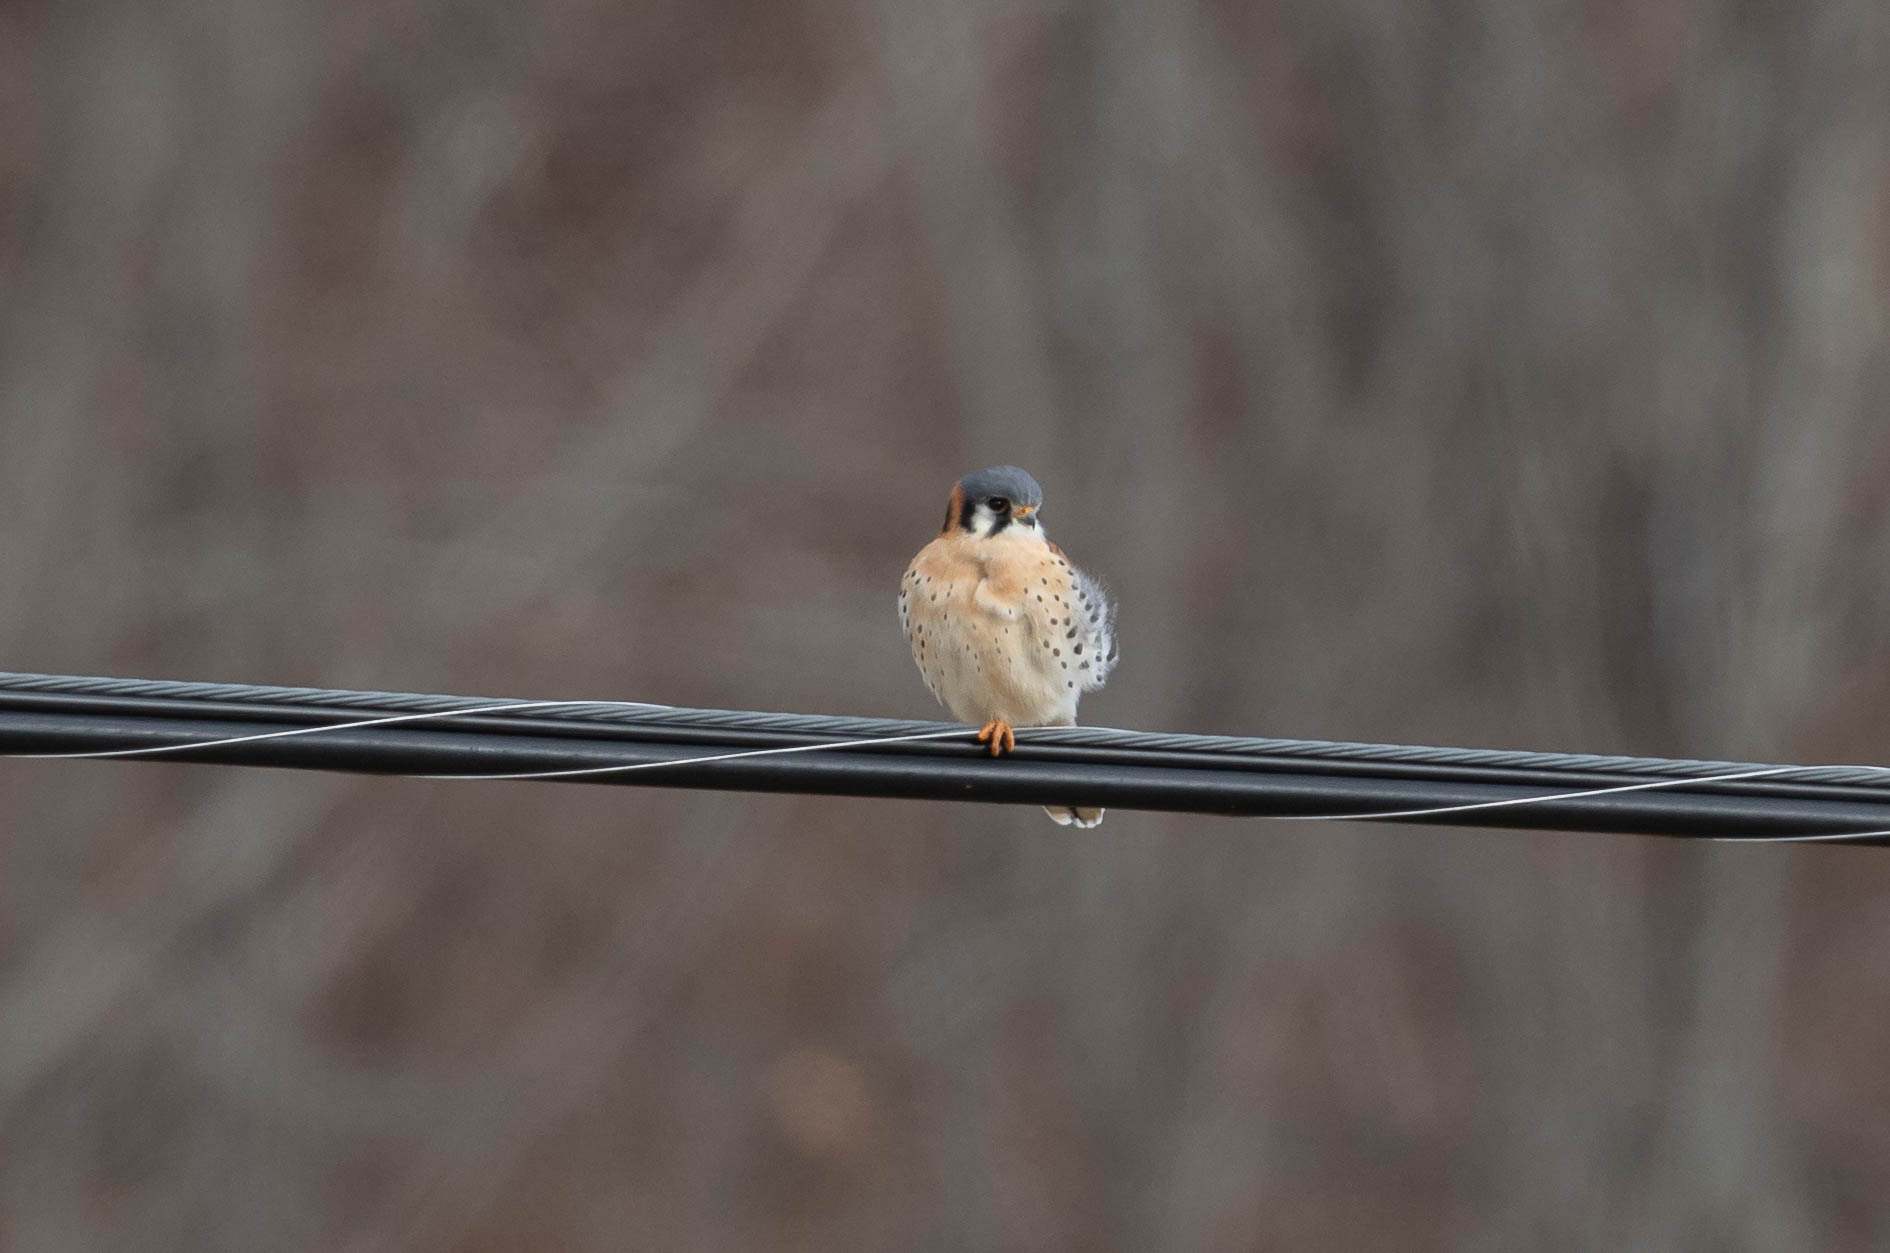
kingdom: Animalia
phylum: Chordata
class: Aves
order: Falconiformes
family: Falconidae
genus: Falco
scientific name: Falco sparverius
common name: American kestrel
